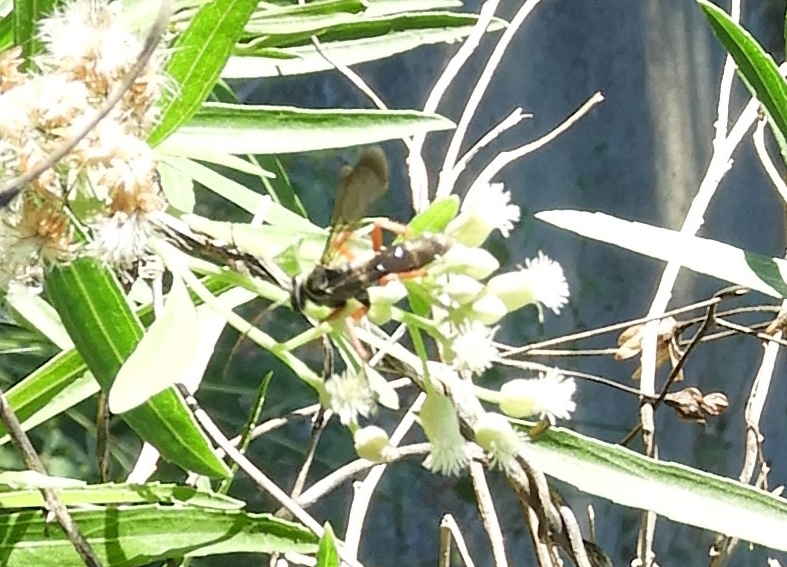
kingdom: Animalia
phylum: Arthropoda
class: Insecta
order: Hymenoptera
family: Pompilidae
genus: Episyron
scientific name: Episyron conterminus
